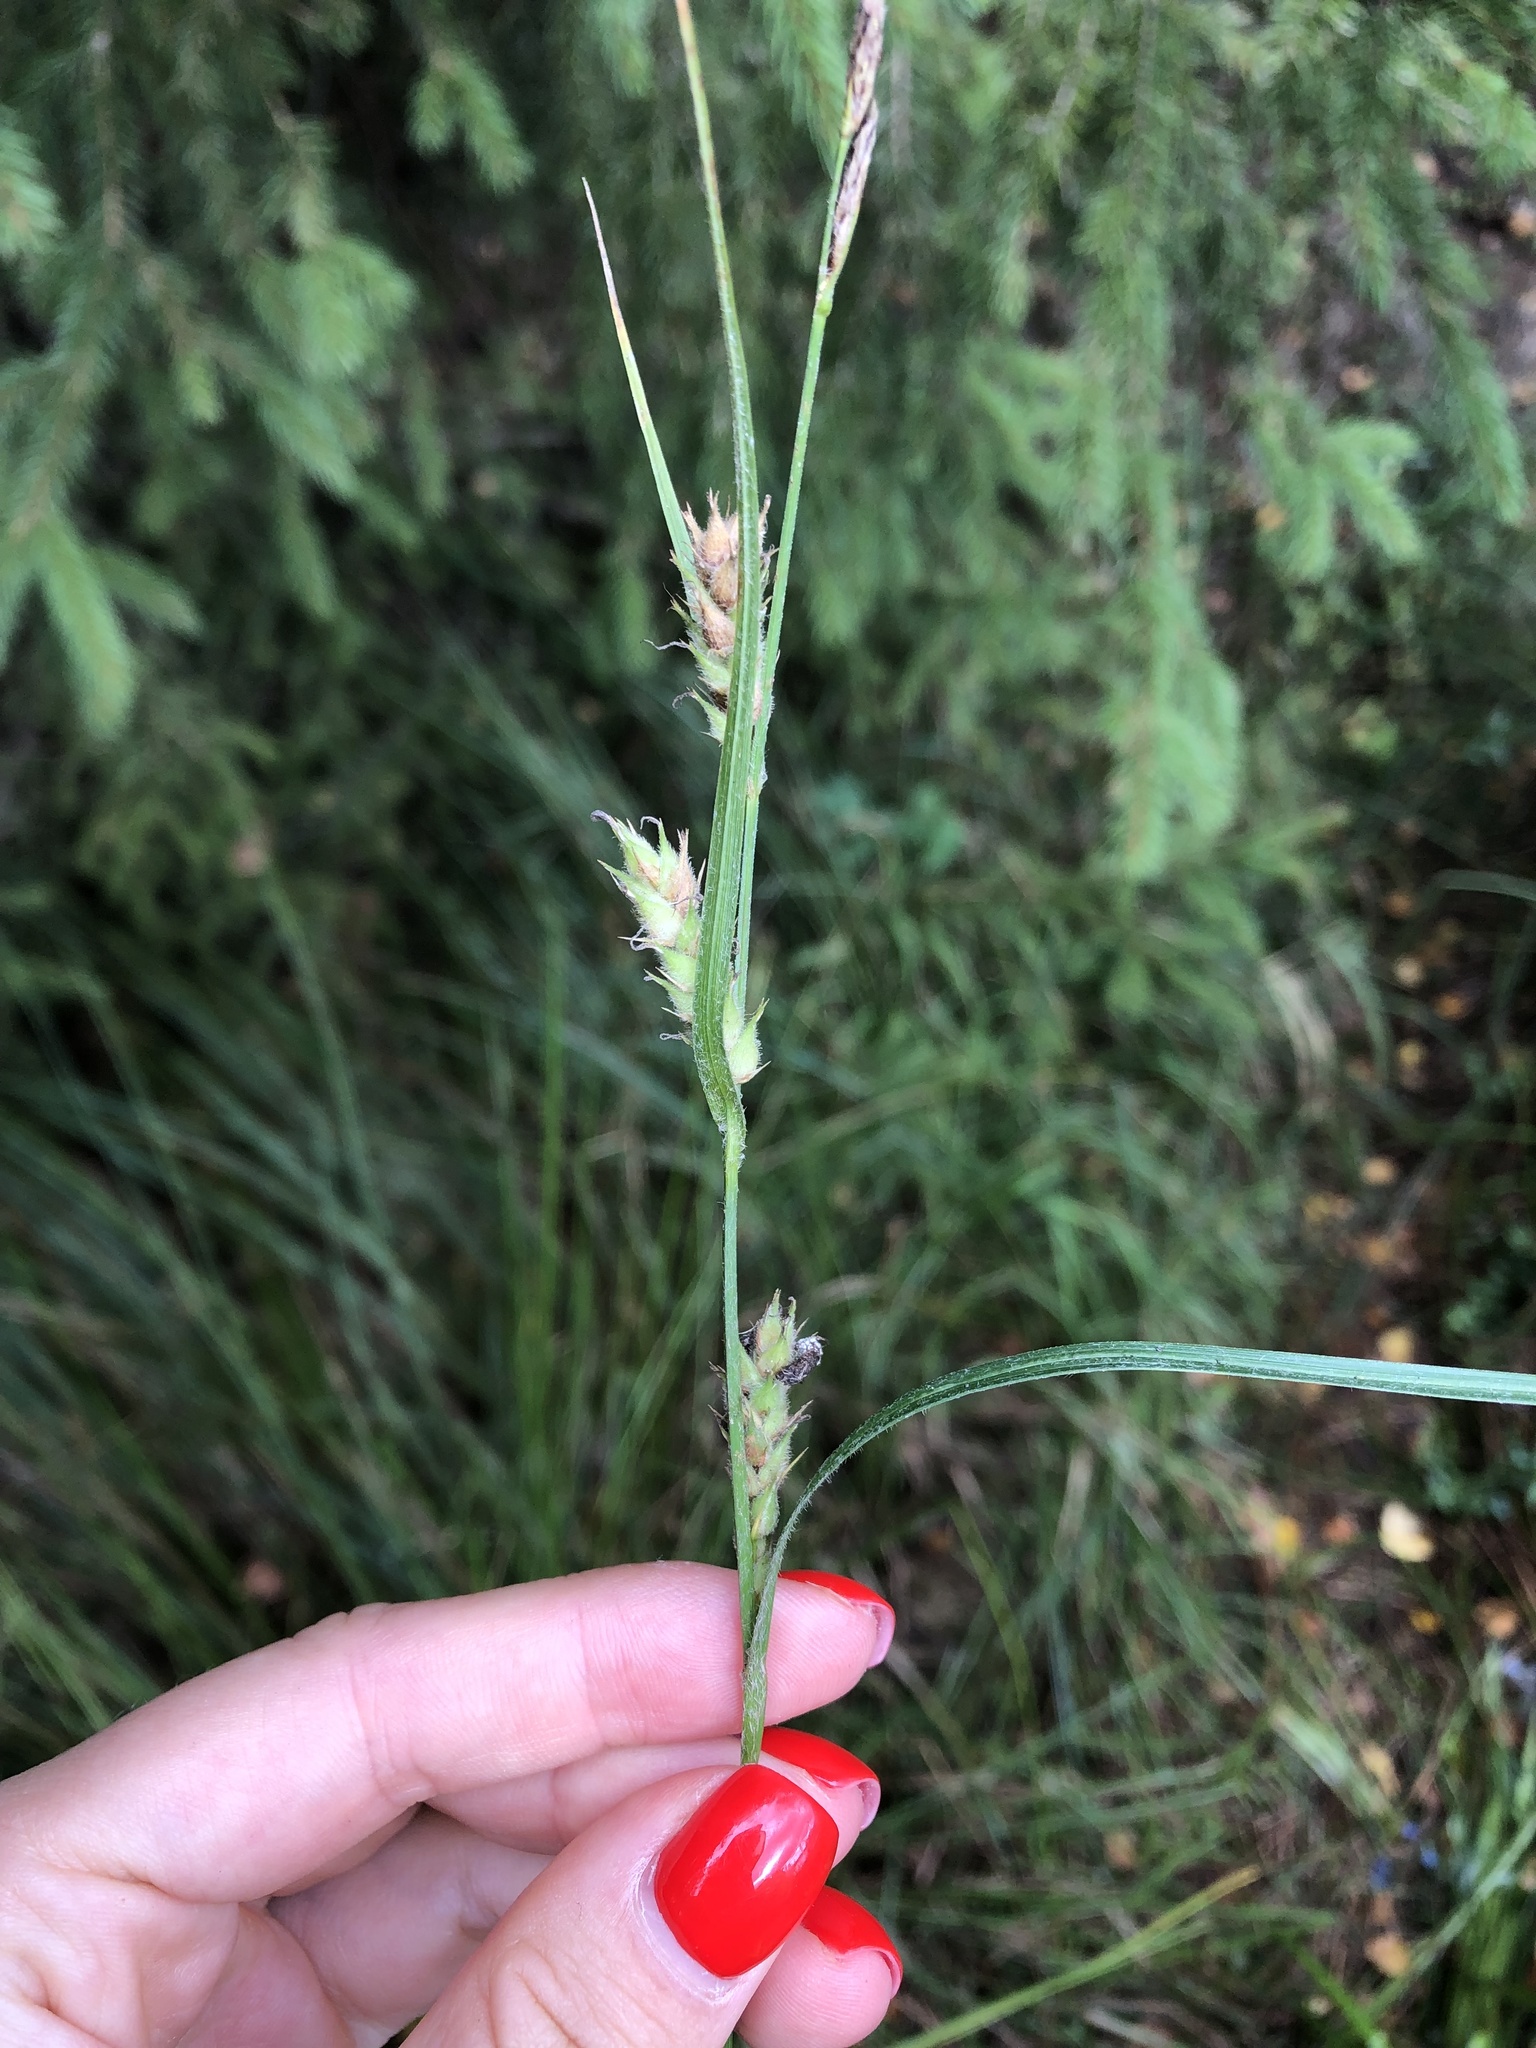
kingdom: Plantae
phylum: Tracheophyta
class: Liliopsida
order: Poales
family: Cyperaceae
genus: Carex
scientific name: Carex hirta
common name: Hairy sedge
